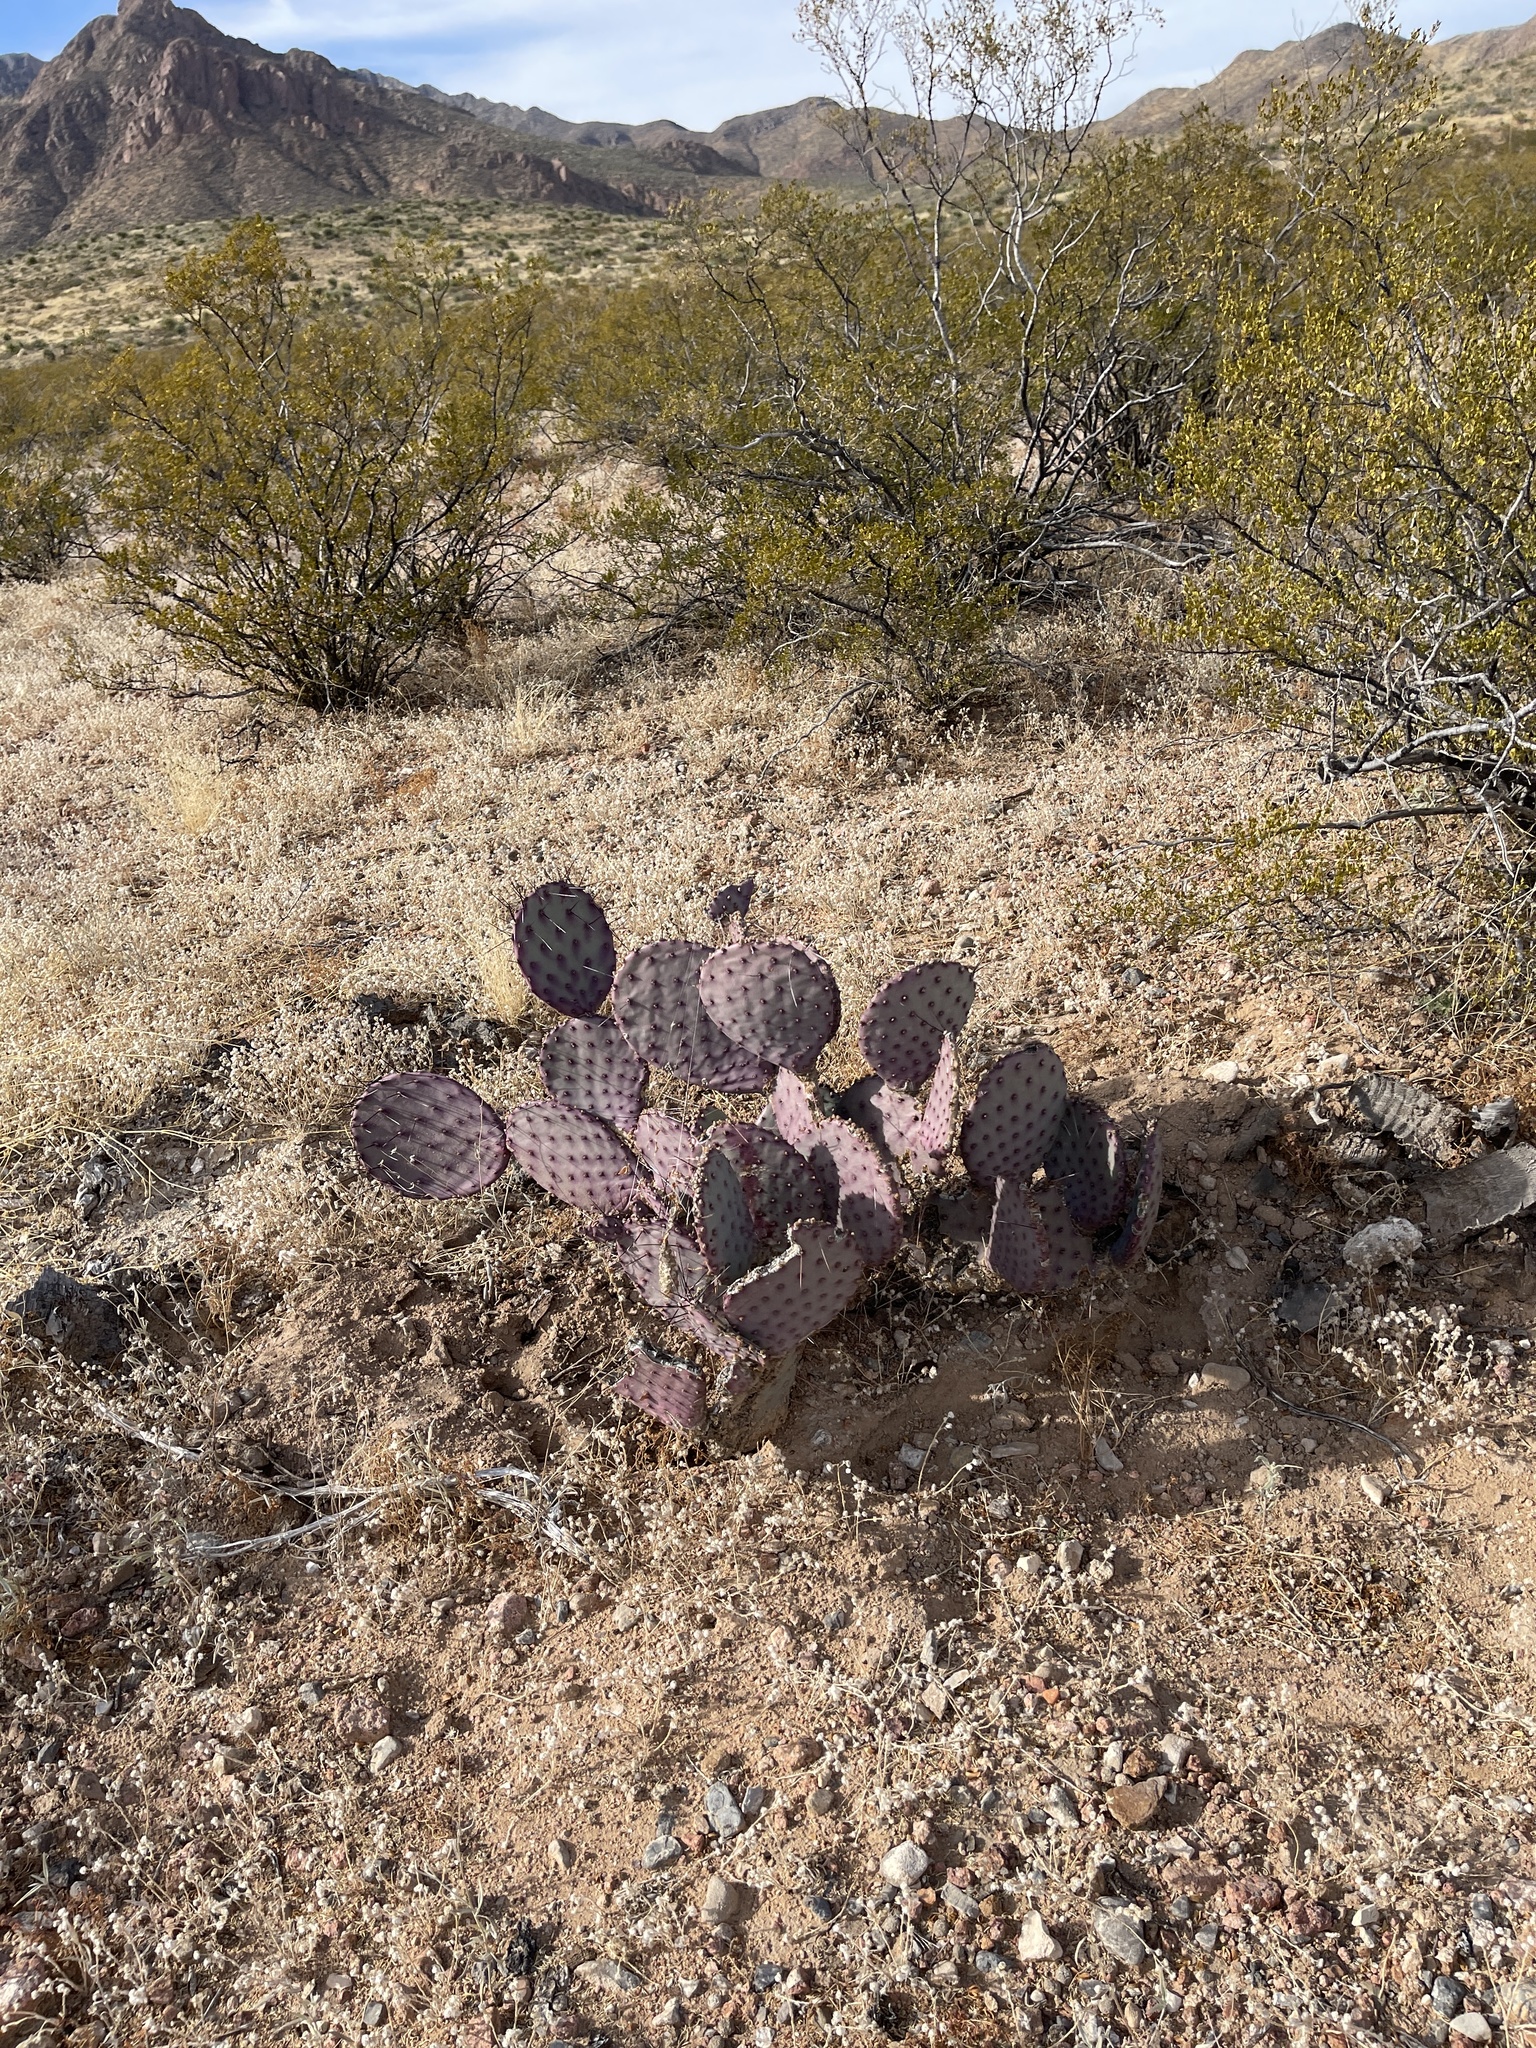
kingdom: Plantae
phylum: Tracheophyta
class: Magnoliopsida
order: Caryophyllales
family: Cactaceae
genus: Opuntia
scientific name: Opuntia macrocentra
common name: Purple prickly-pear
